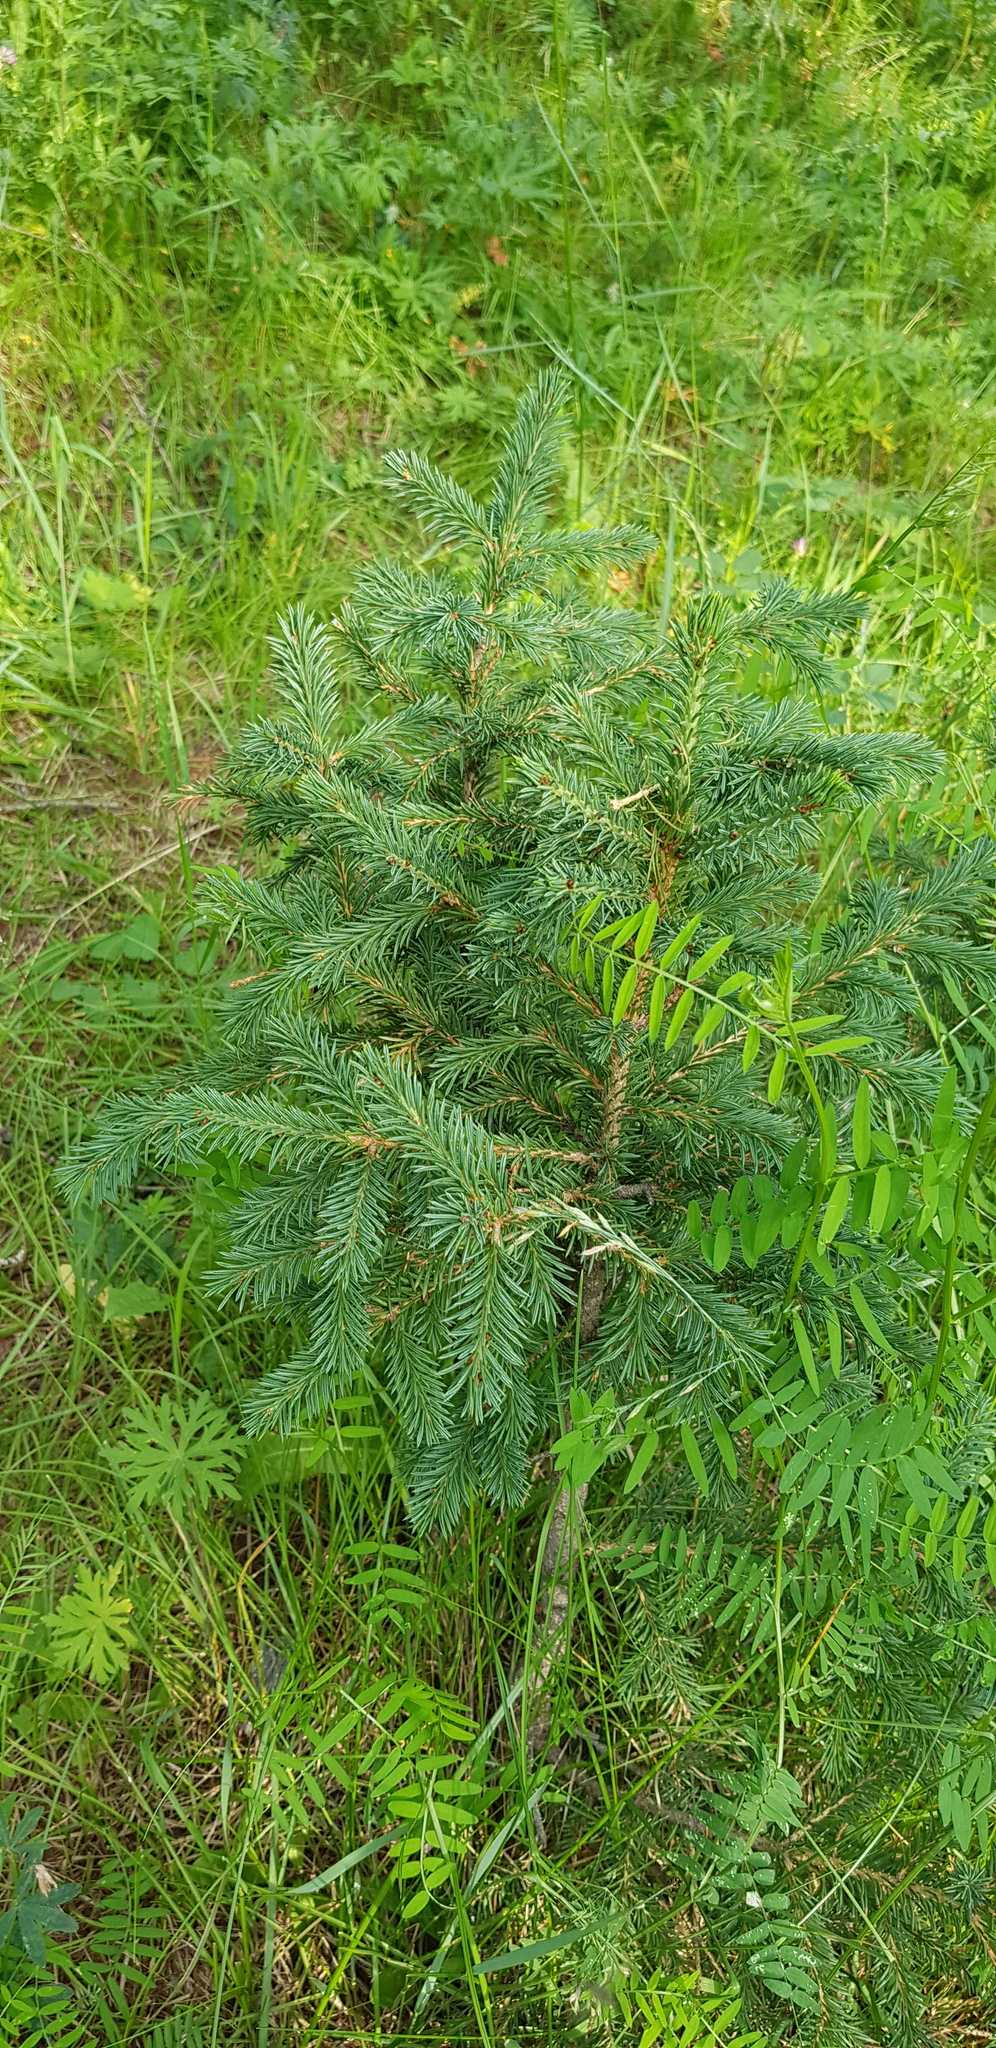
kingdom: Plantae
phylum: Tracheophyta
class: Pinopsida
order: Pinales
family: Pinaceae
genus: Picea
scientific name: Picea obovata
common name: Siberian spruce
